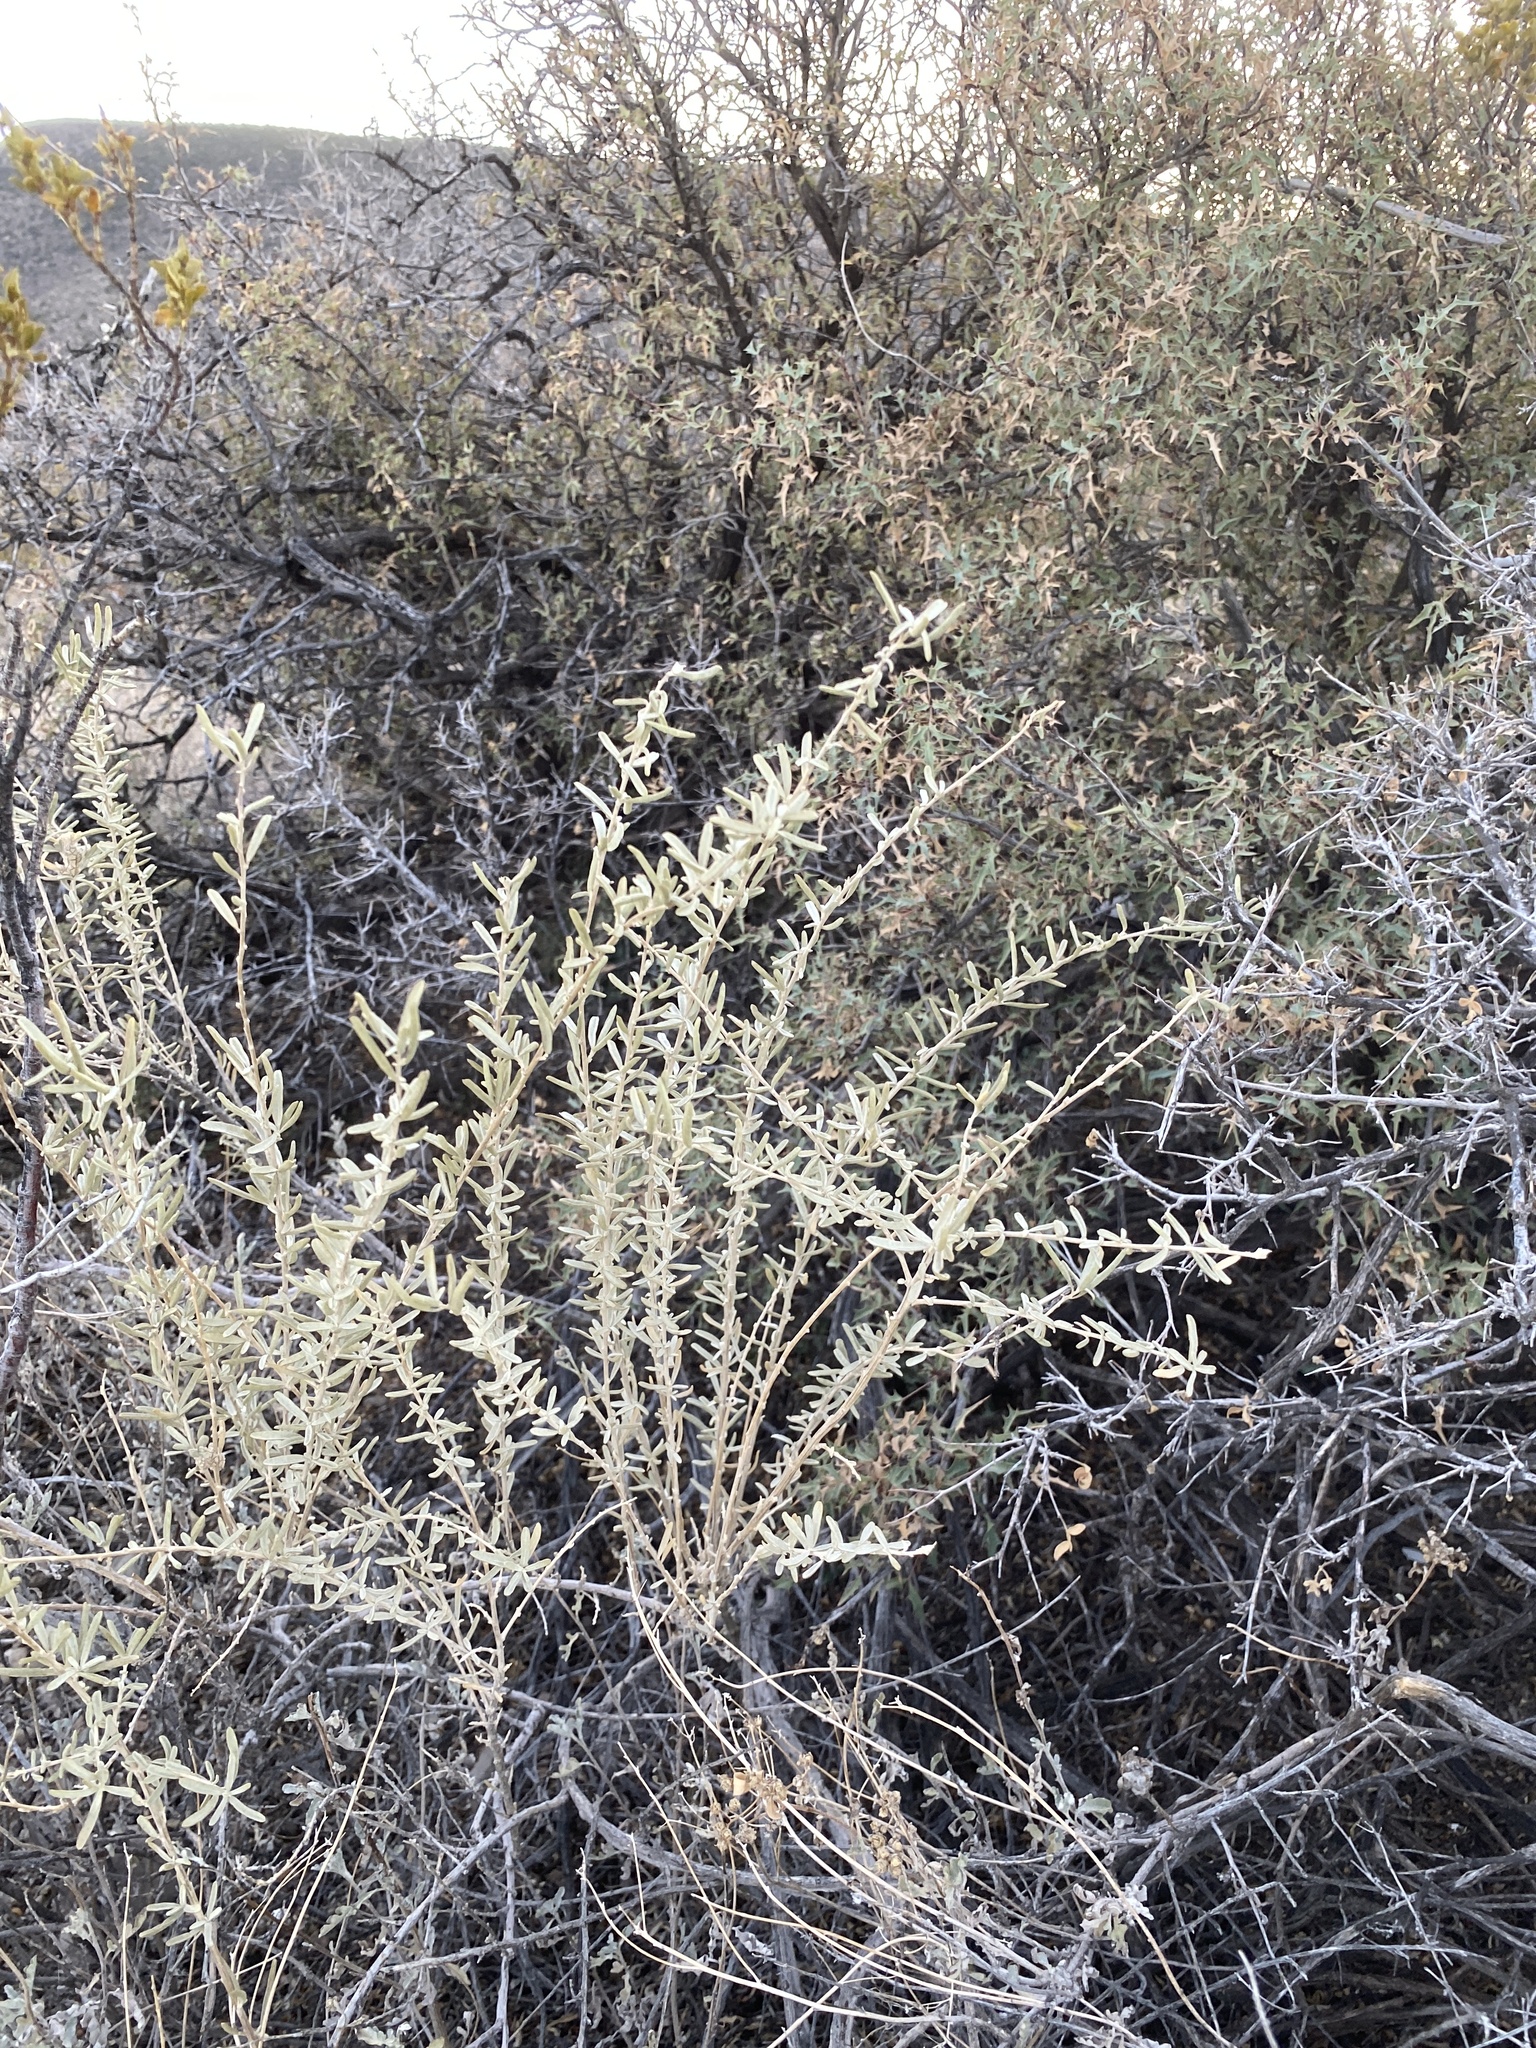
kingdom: Plantae
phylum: Tracheophyta
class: Magnoliopsida
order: Caryophyllales
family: Amaranthaceae
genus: Atriplex
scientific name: Atriplex canescens
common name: Four-wing saltbush
